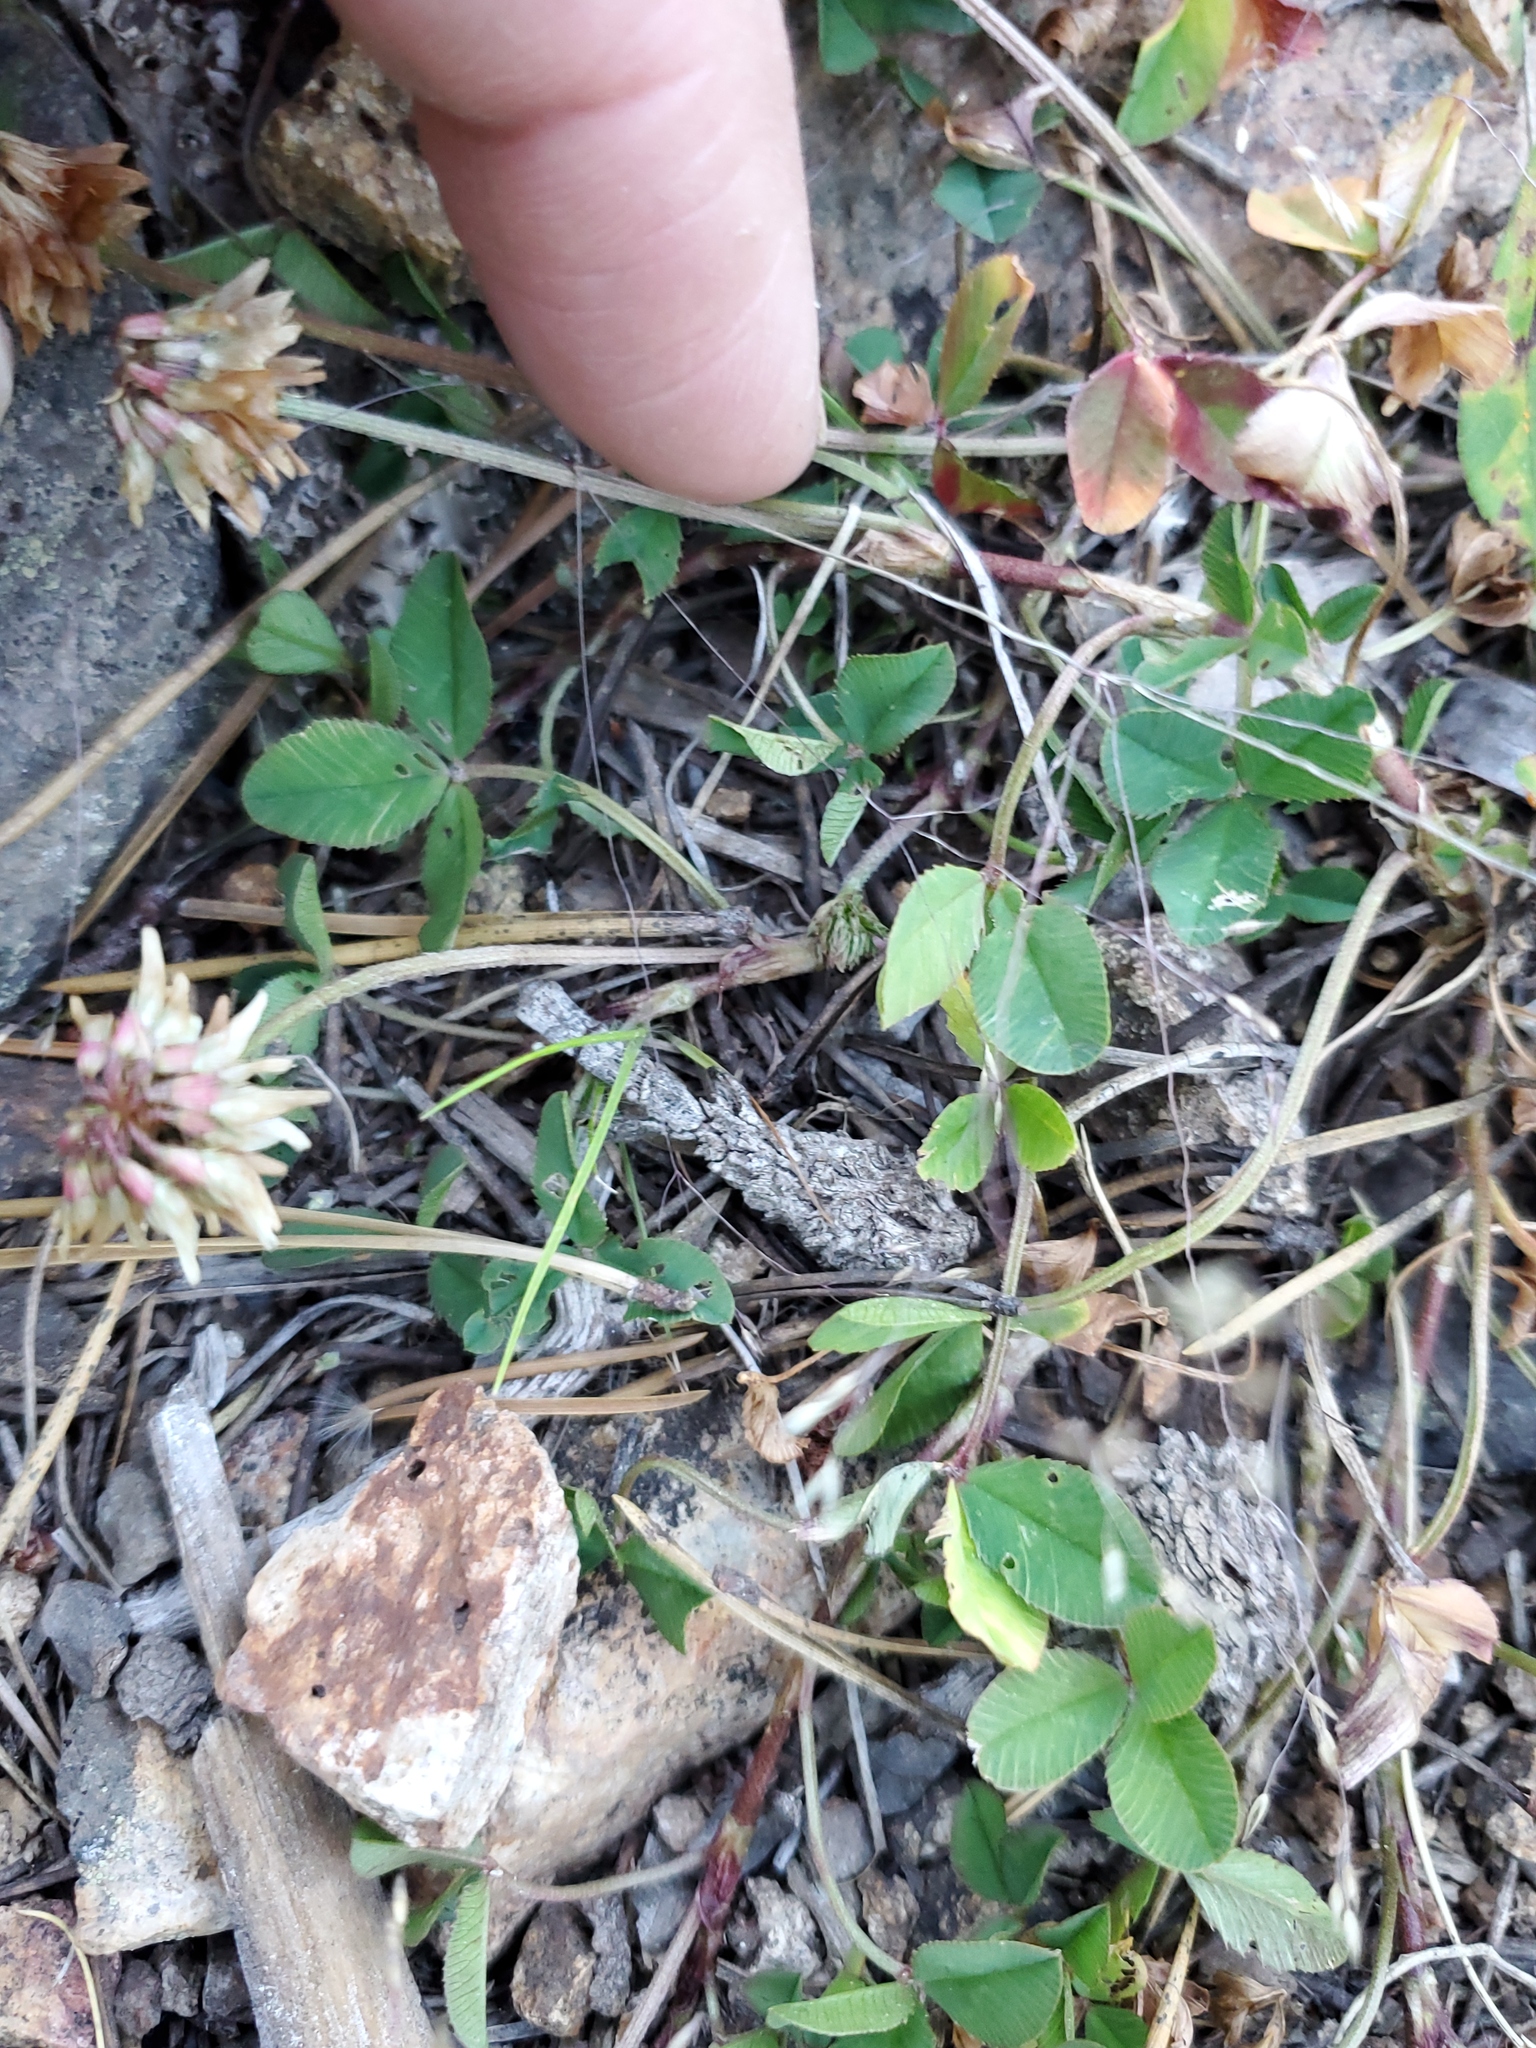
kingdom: Plantae
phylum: Tracheophyta
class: Magnoliopsida
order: Fabales
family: Fabaceae
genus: Trifolium
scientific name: Trifolium repens
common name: White clover
